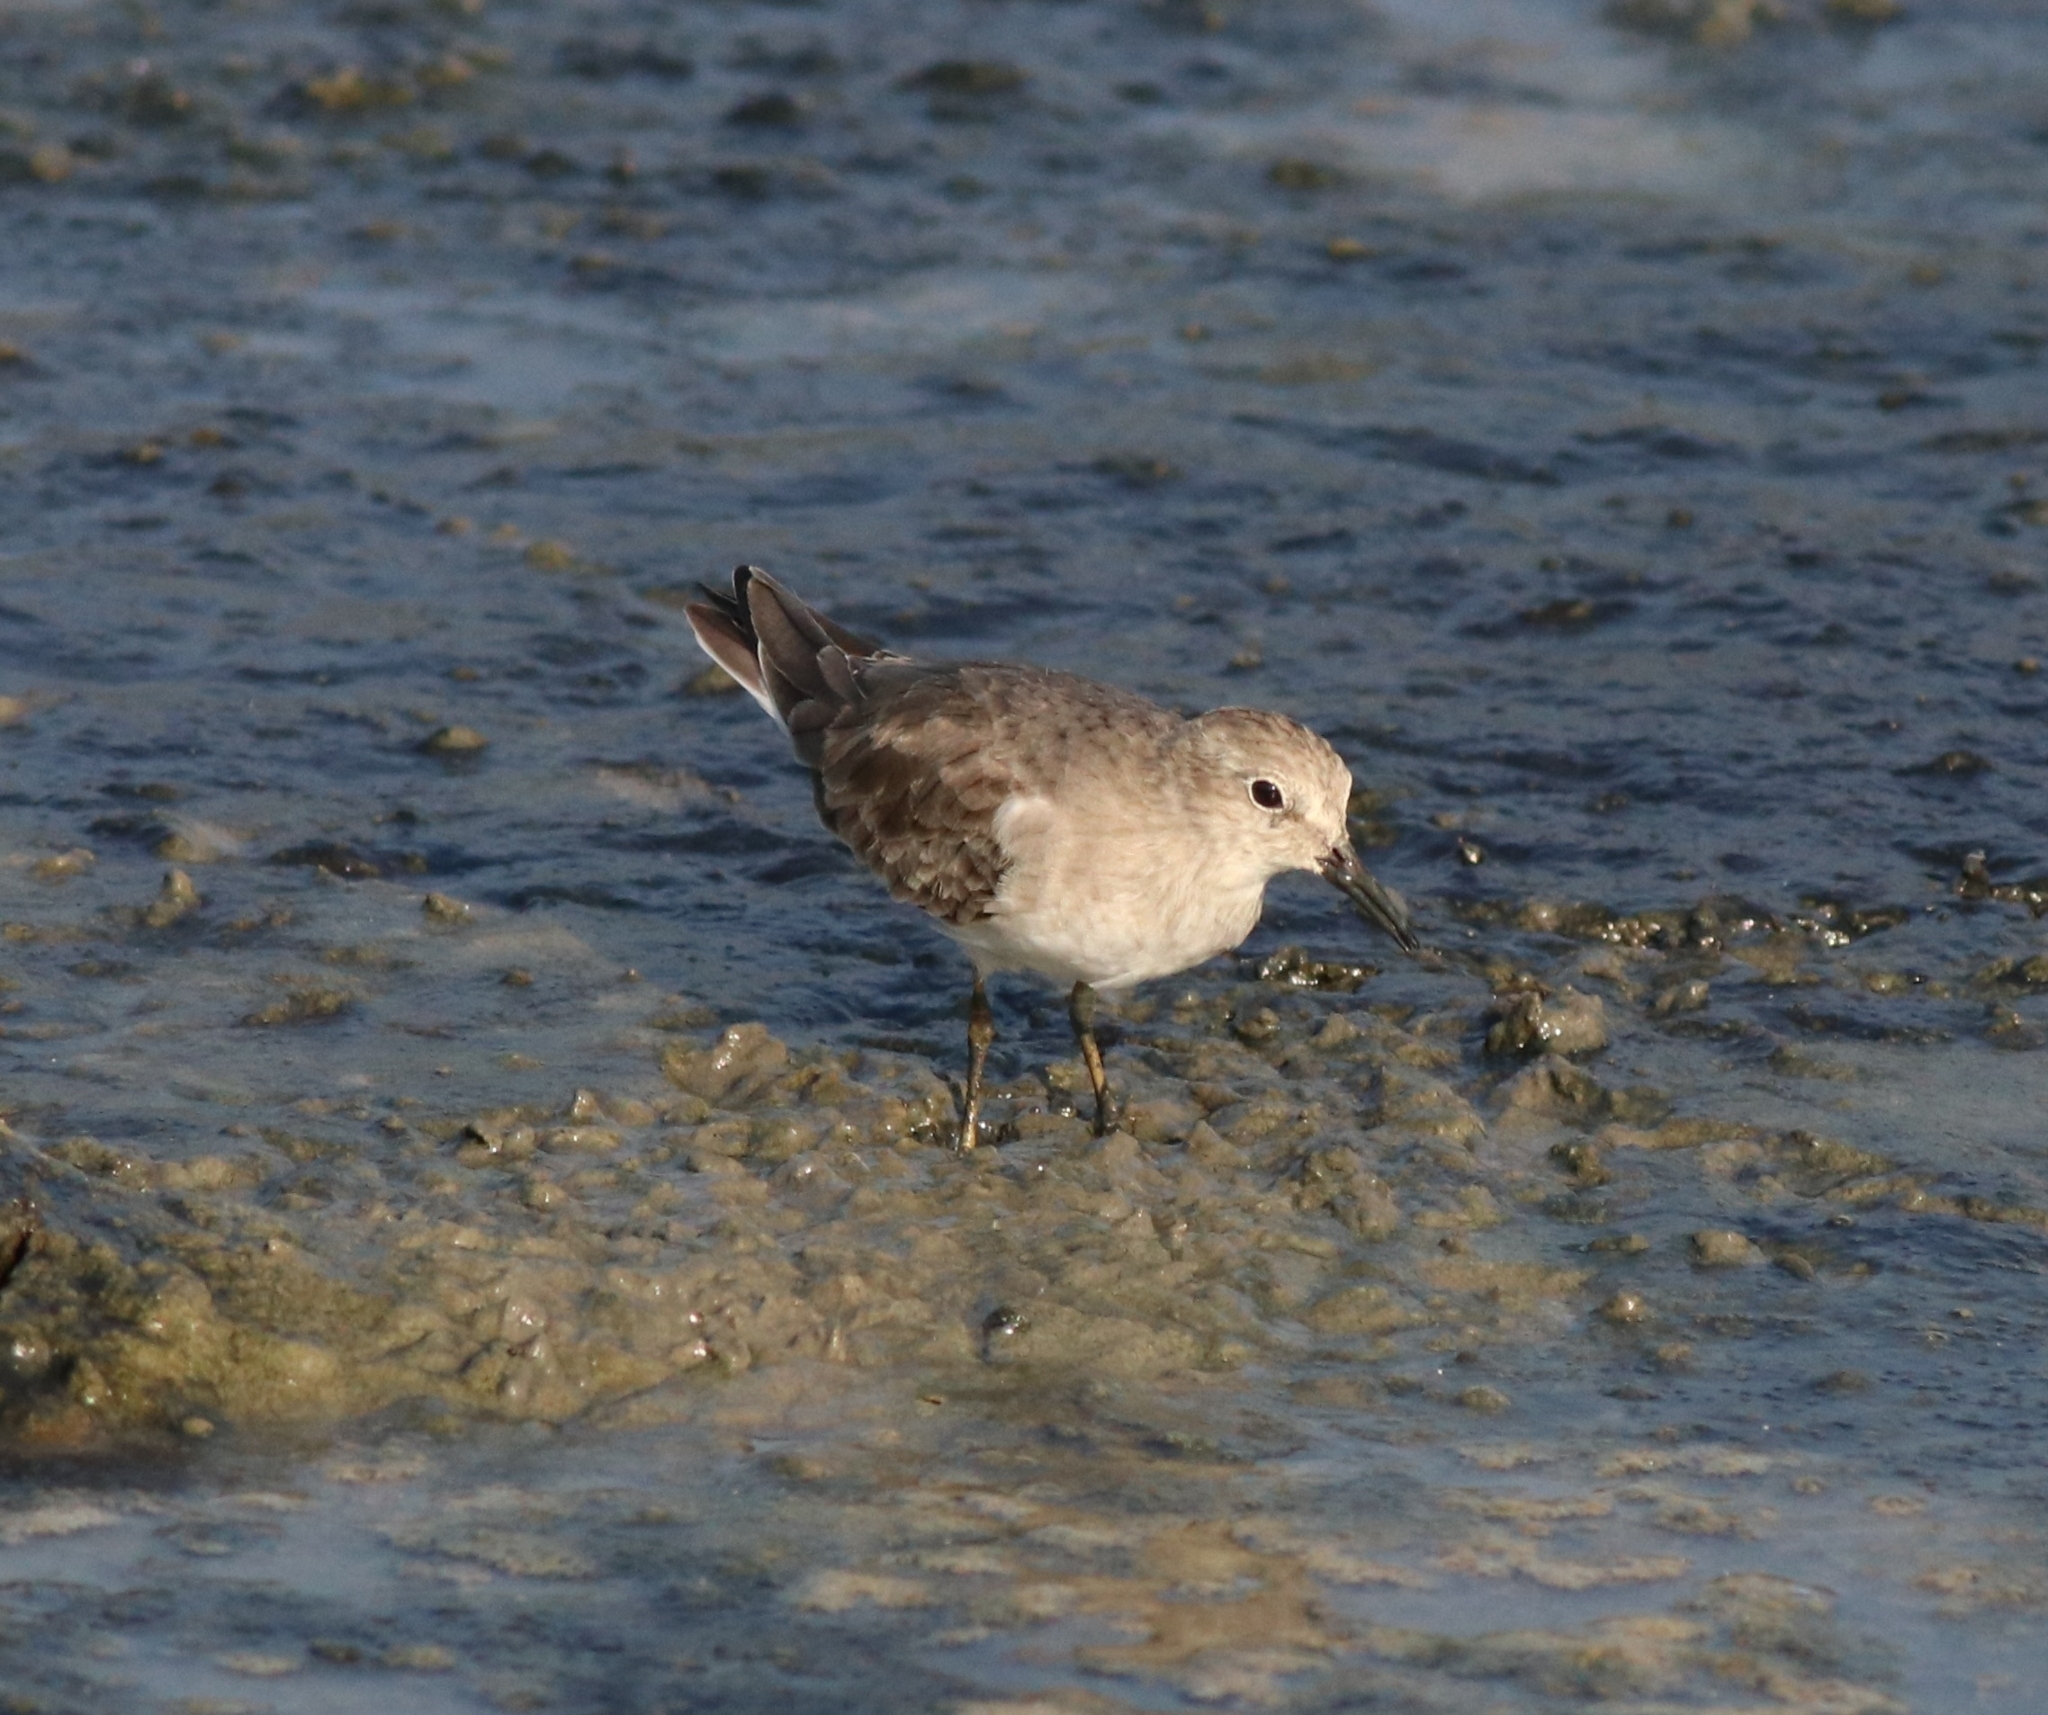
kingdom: Animalia
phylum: Chordata
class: Aves
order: Charadriiformes
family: Scolopacidae
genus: Calidris
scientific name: Calidris temminckii
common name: Temminck's stint
